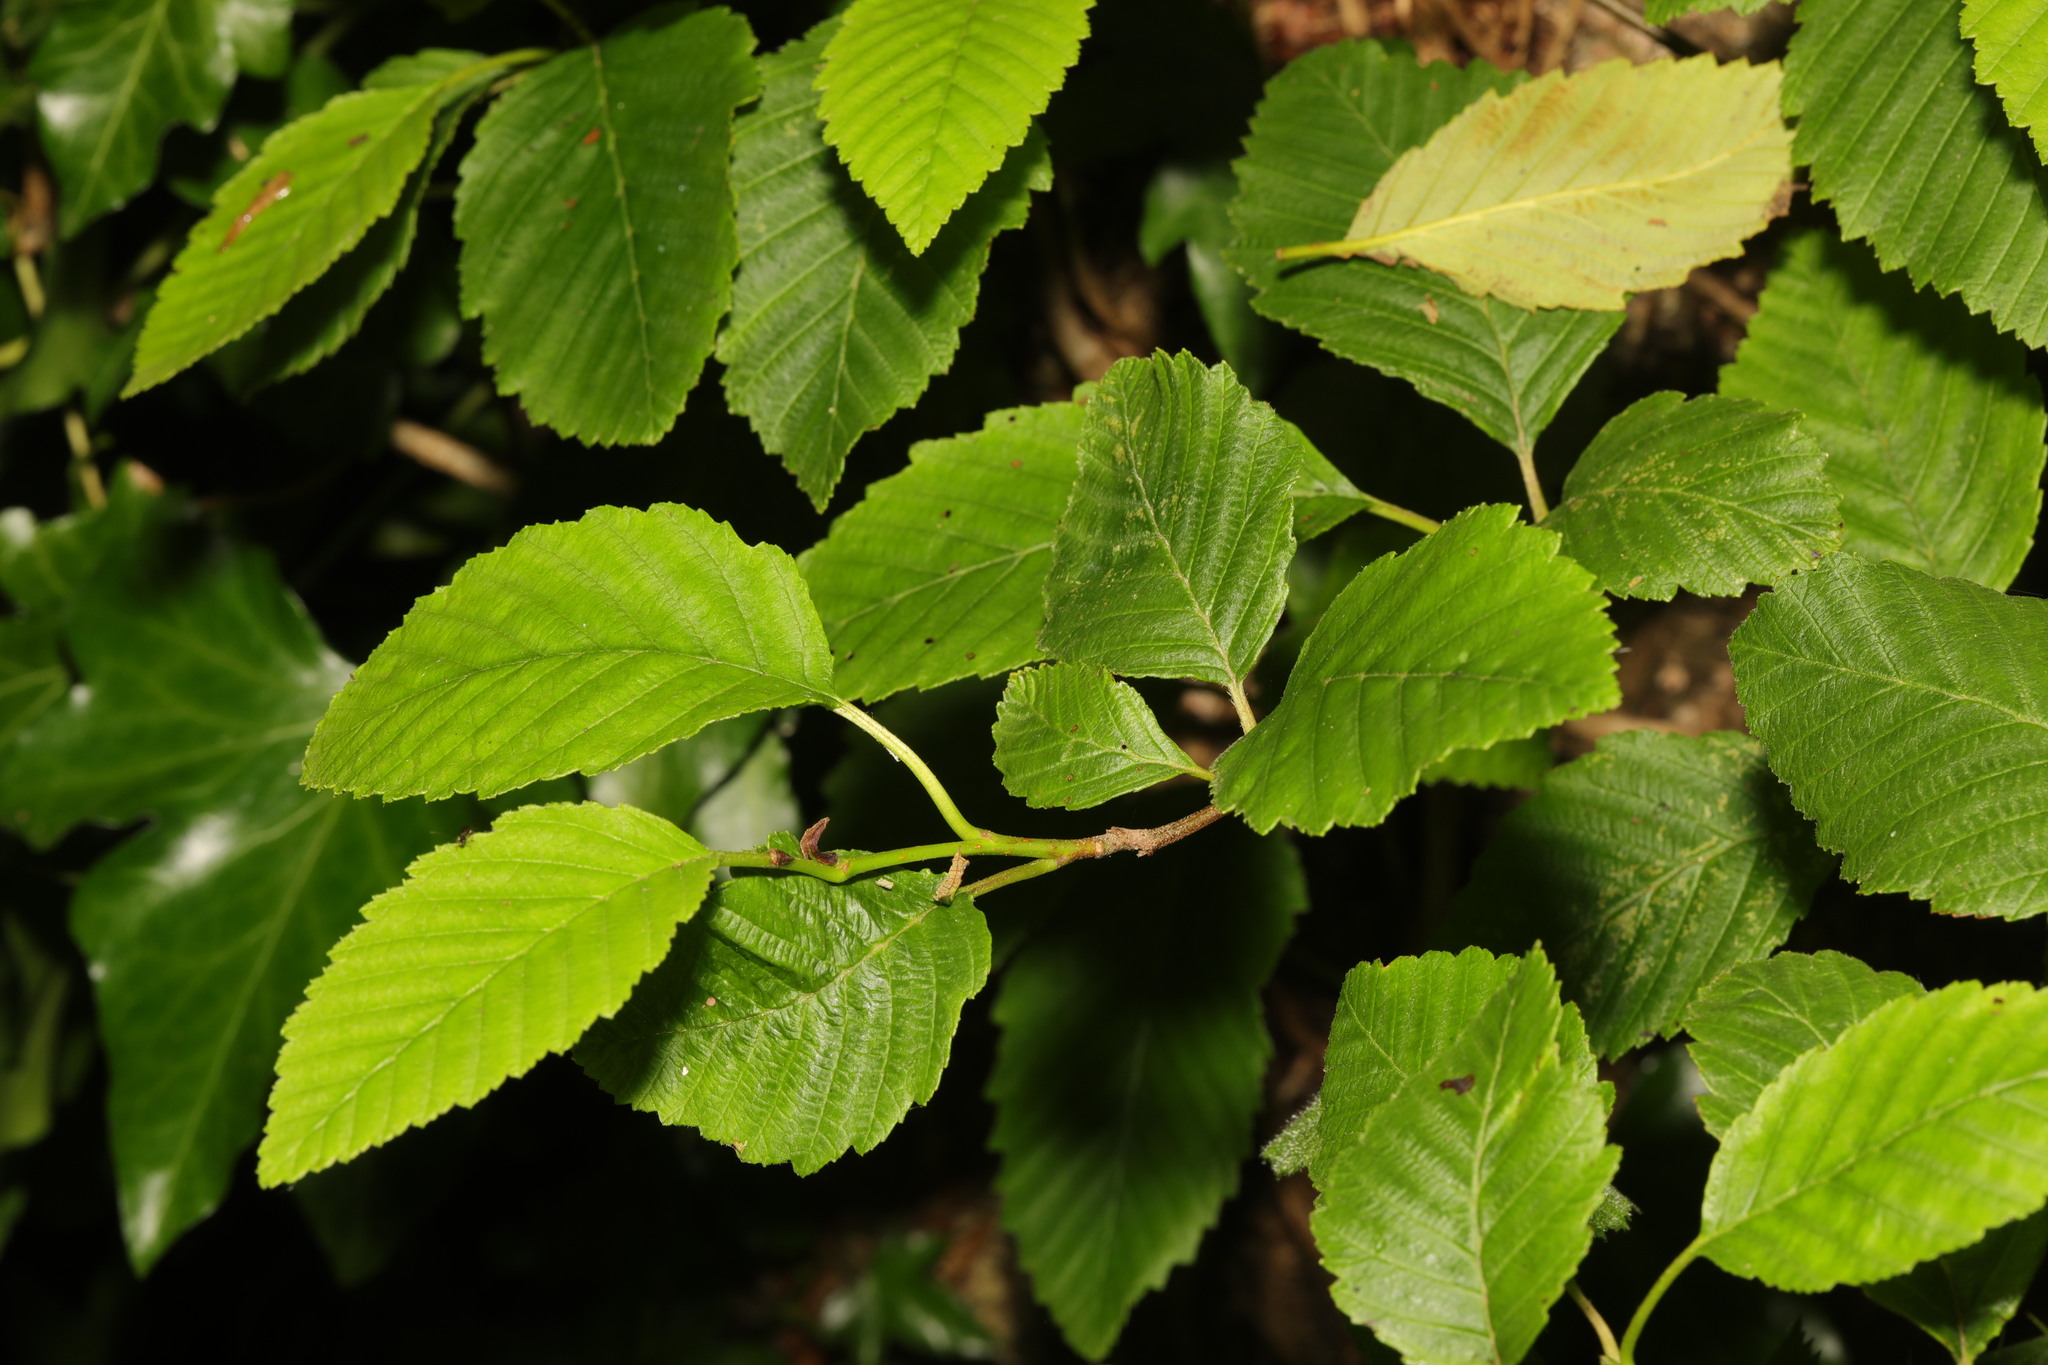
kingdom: Plantae
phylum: Tracheophyta
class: Magnoliopsida
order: Fagales
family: Betulaceae
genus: Alnus
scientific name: Alnus incana
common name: Grey alder
